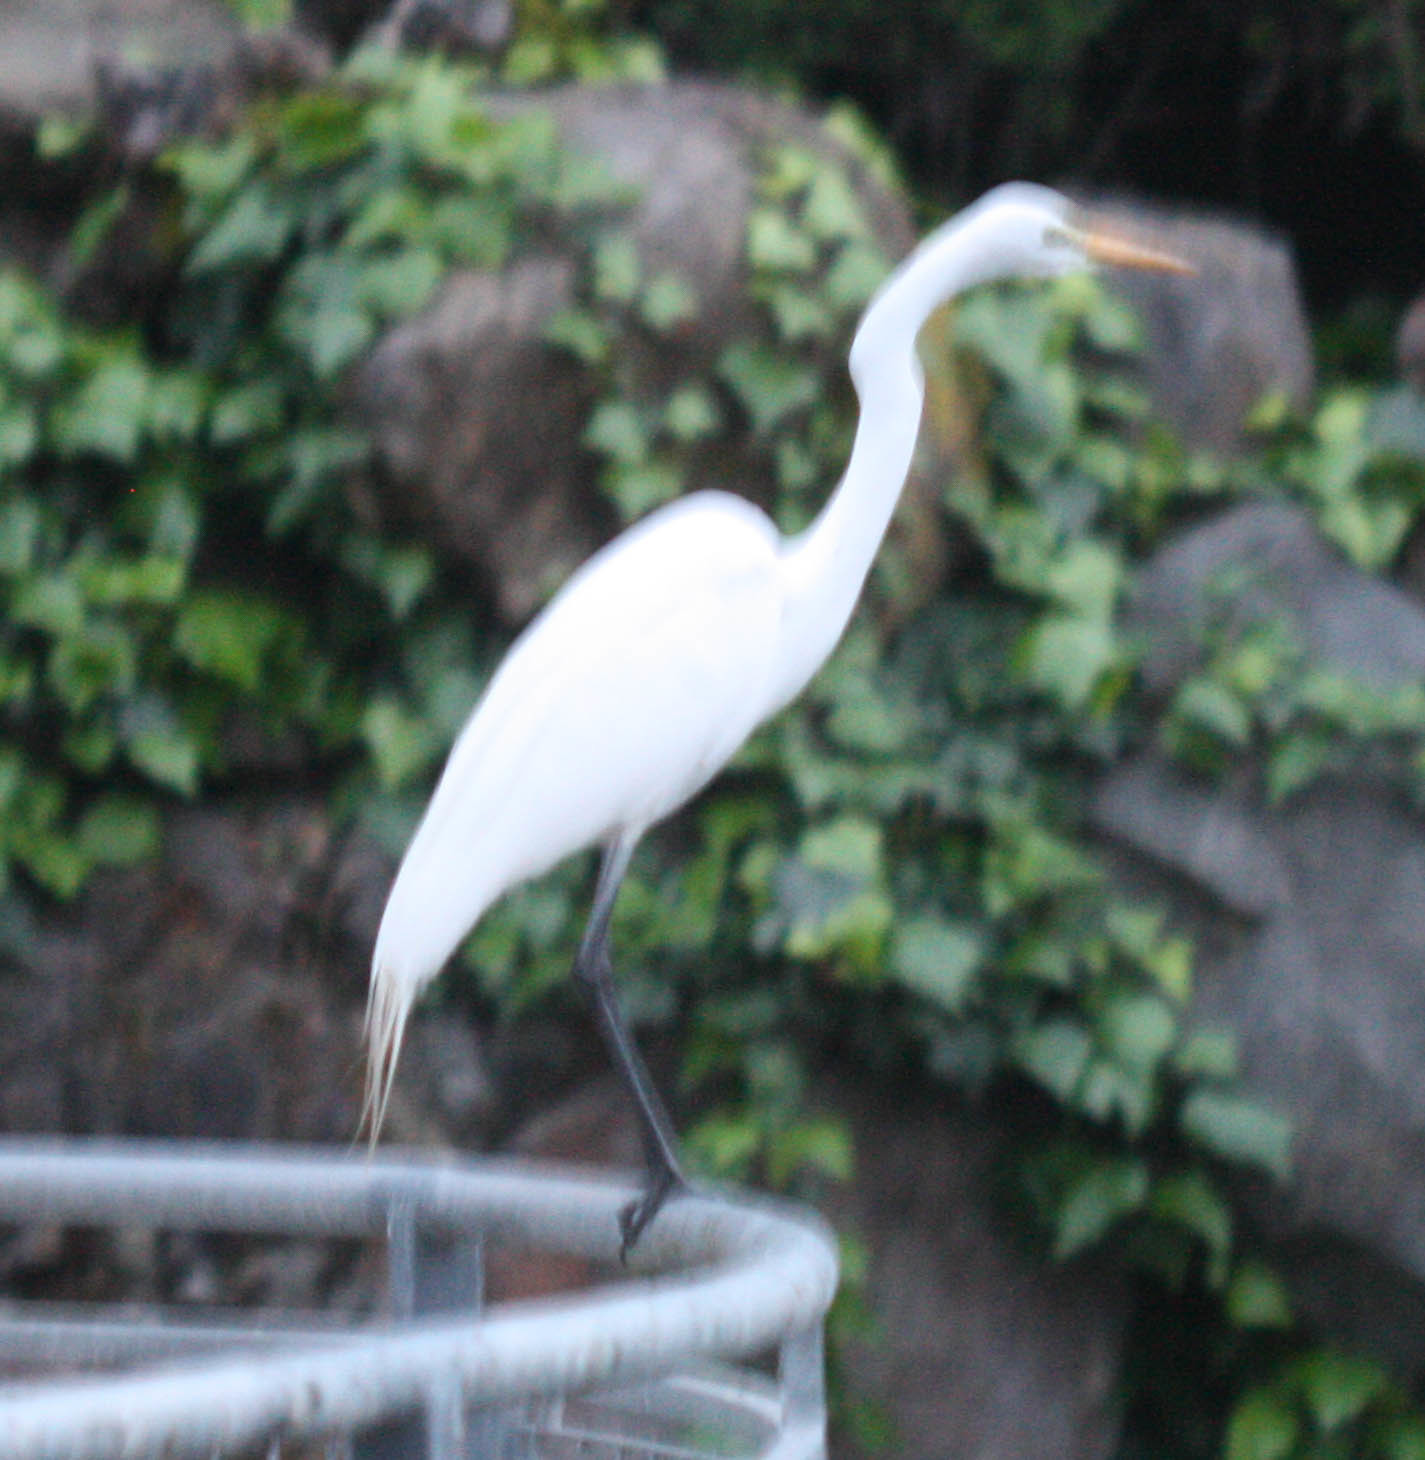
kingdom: Animalia
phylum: Chordata
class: Aves
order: Pelecaniformes
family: Ardeidae
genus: Ardea
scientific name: Ardea alba
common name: Great egret
